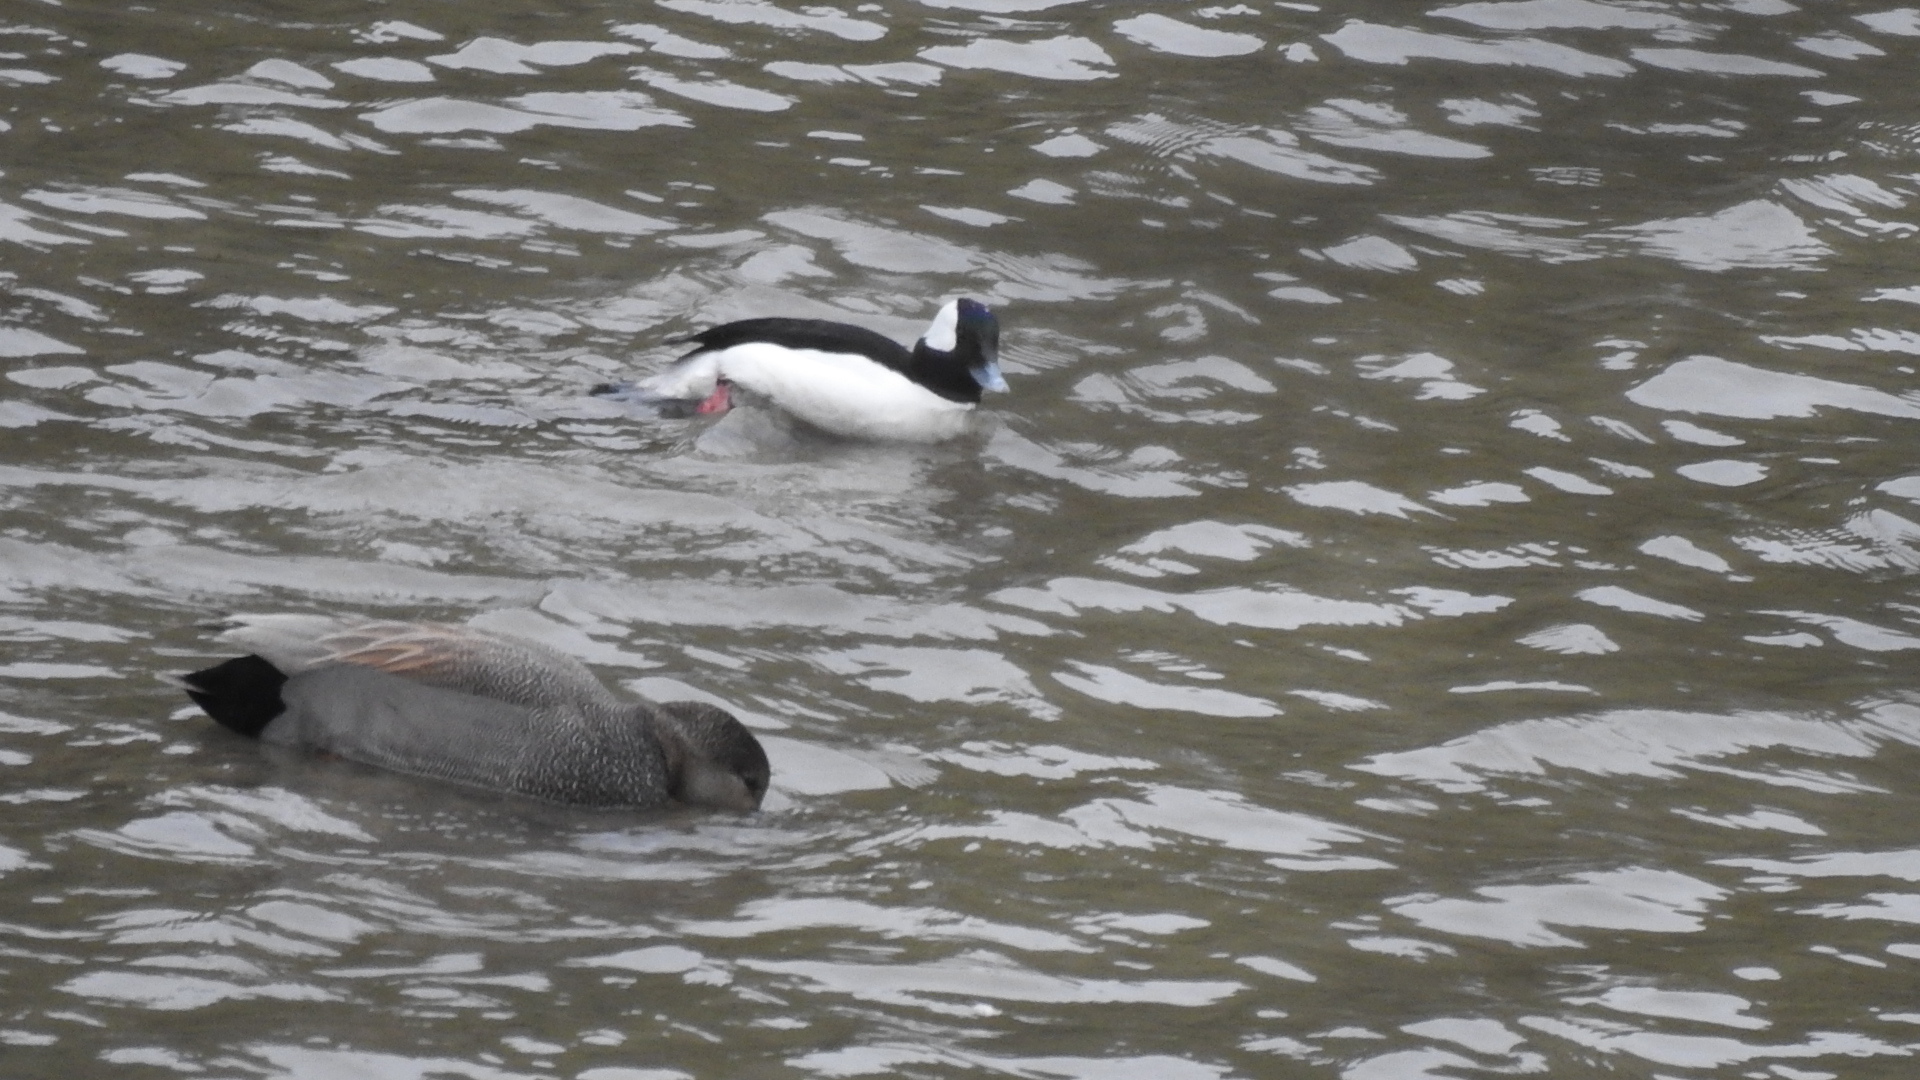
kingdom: Animalia
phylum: Chordata
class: Aves
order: Anseriformes
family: Anatidae
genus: Bucephala
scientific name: Bucephala albeola
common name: Bufflehead
